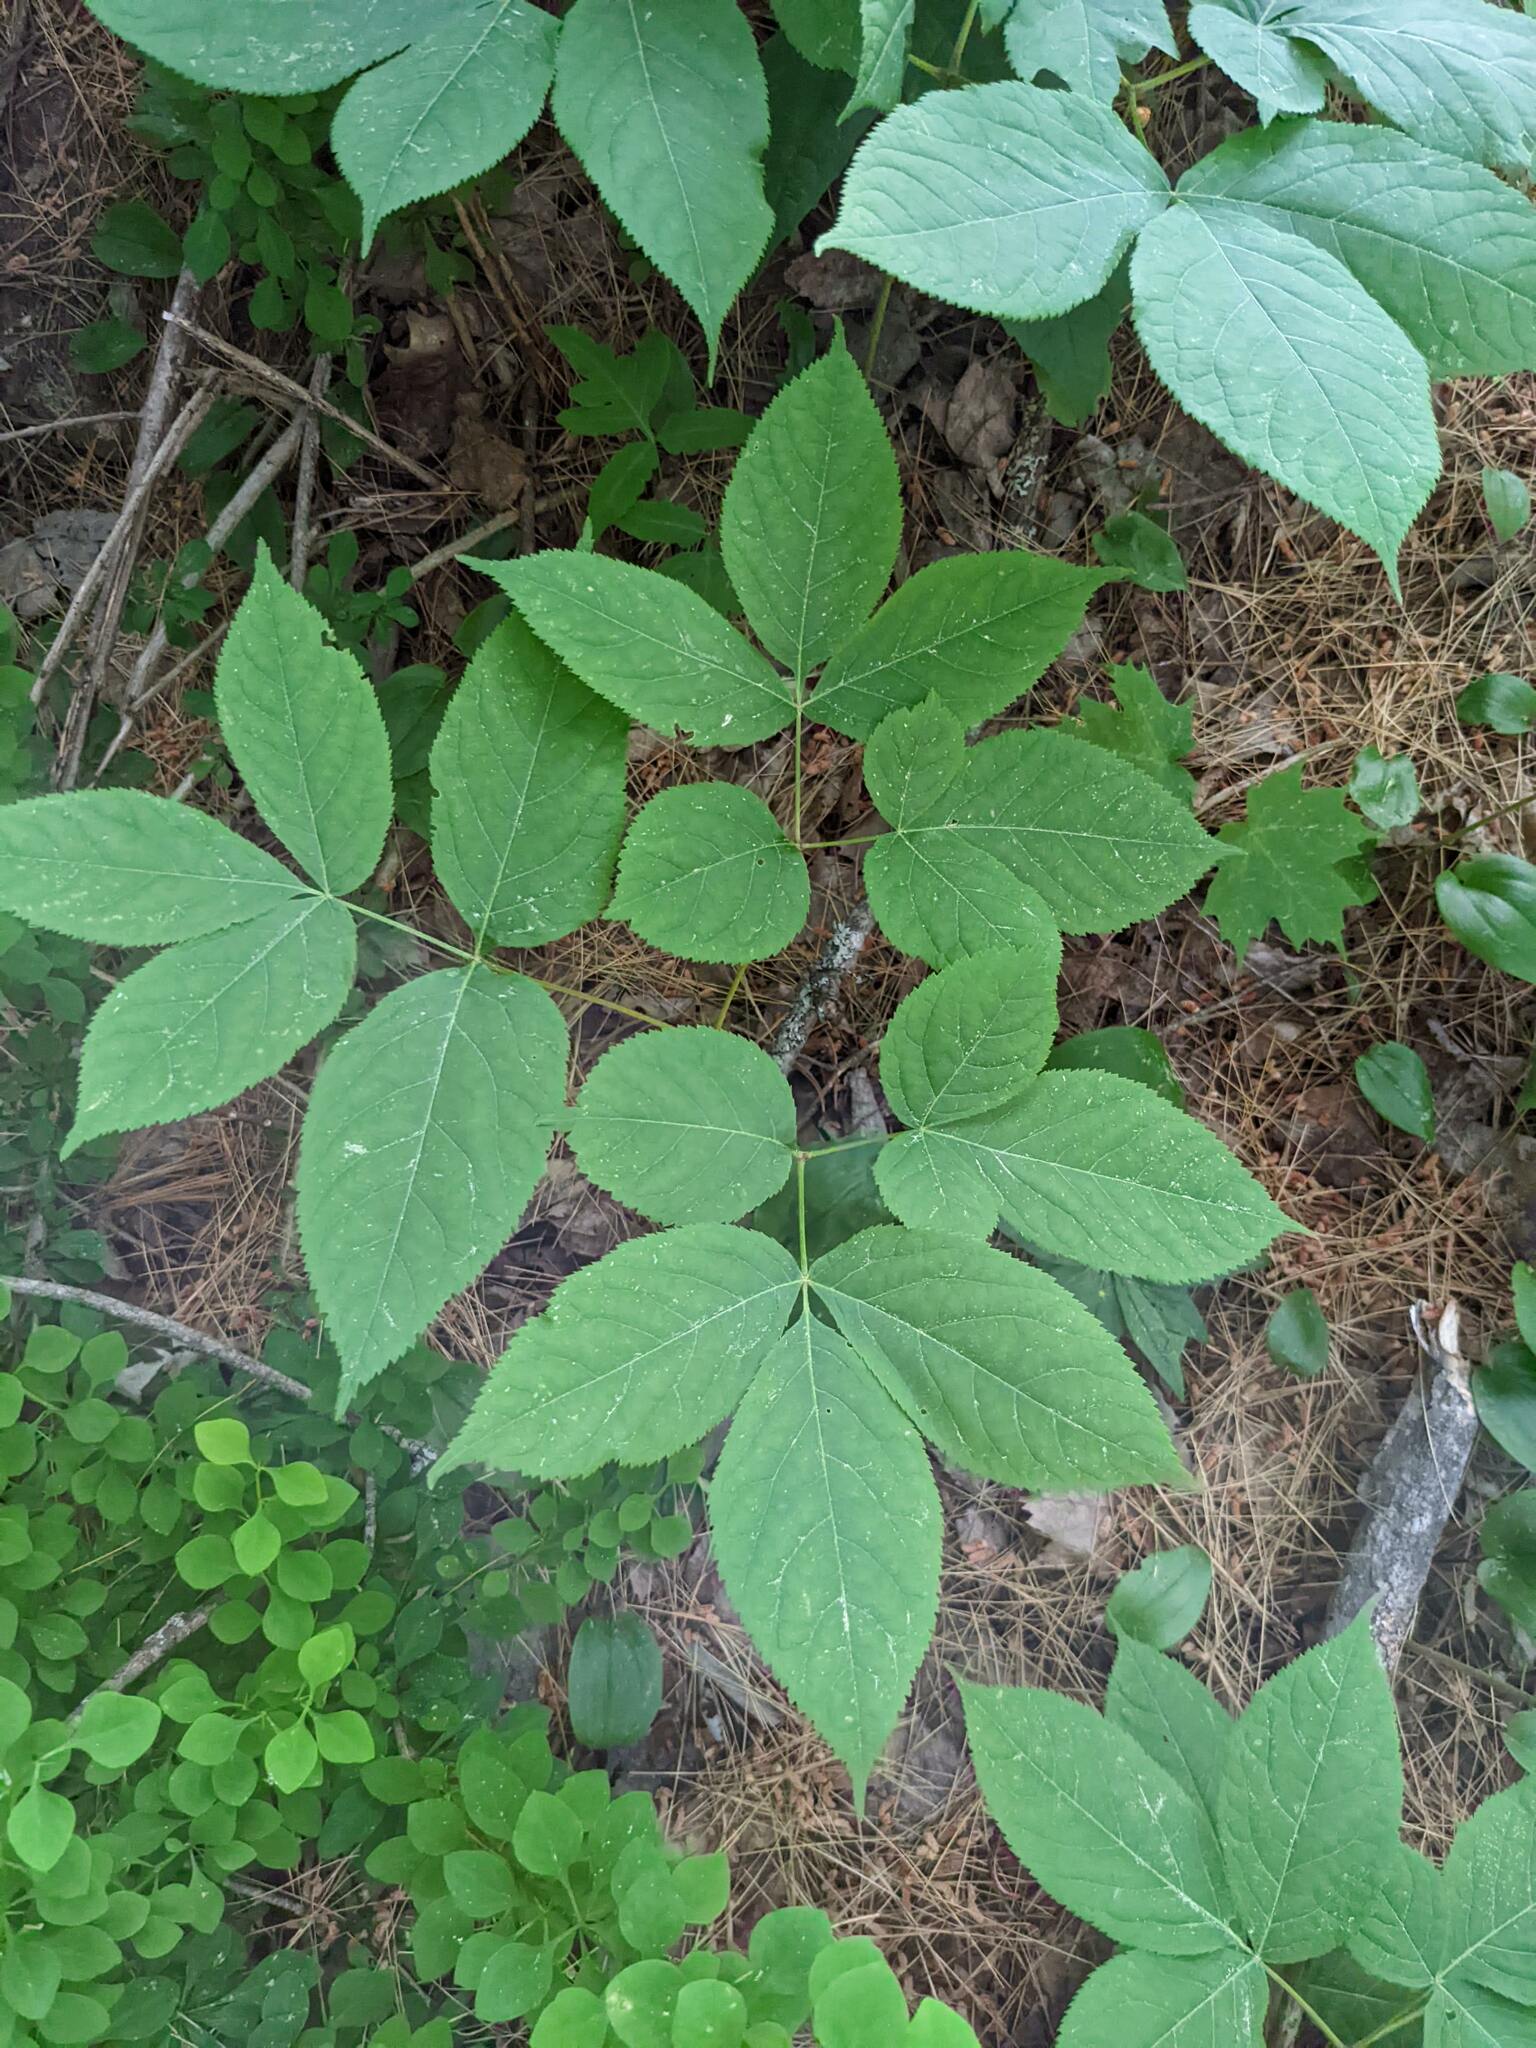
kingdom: Plantae
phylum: Tracheophyta
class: Magnoliopsida
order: Apiales
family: Araliaceae
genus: Aralia
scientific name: Aralia nudicaulis
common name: Wild sarsaparilla
